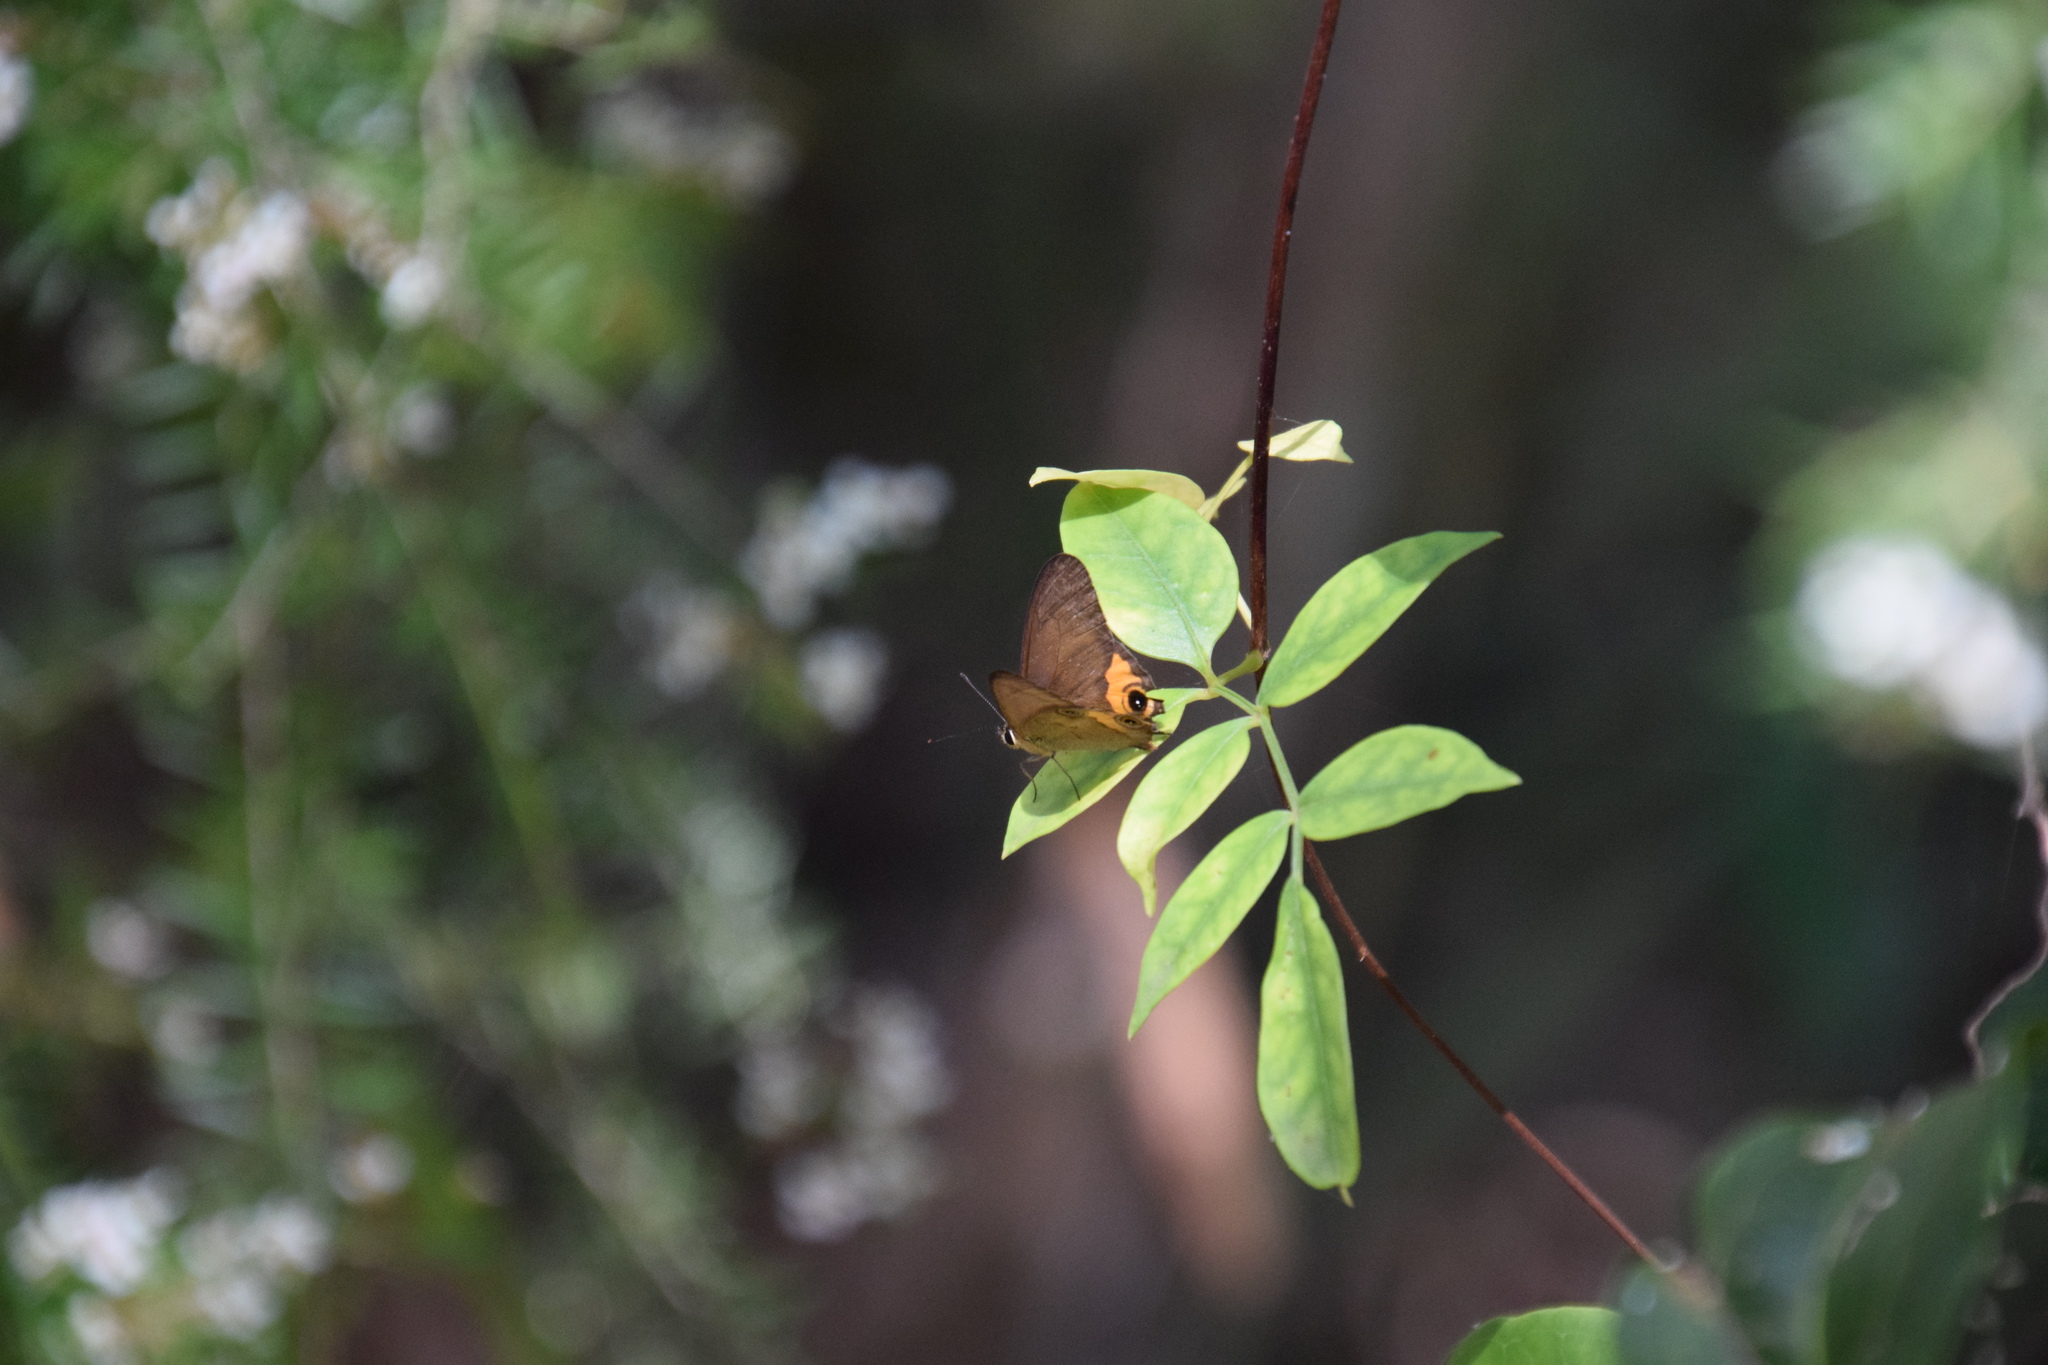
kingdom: Animalia
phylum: Arthropoda
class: Insecta
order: Lepidoptera
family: Nymphalidae
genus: Hypocysta
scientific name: Hypocysta metirius
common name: Brown ringlet
